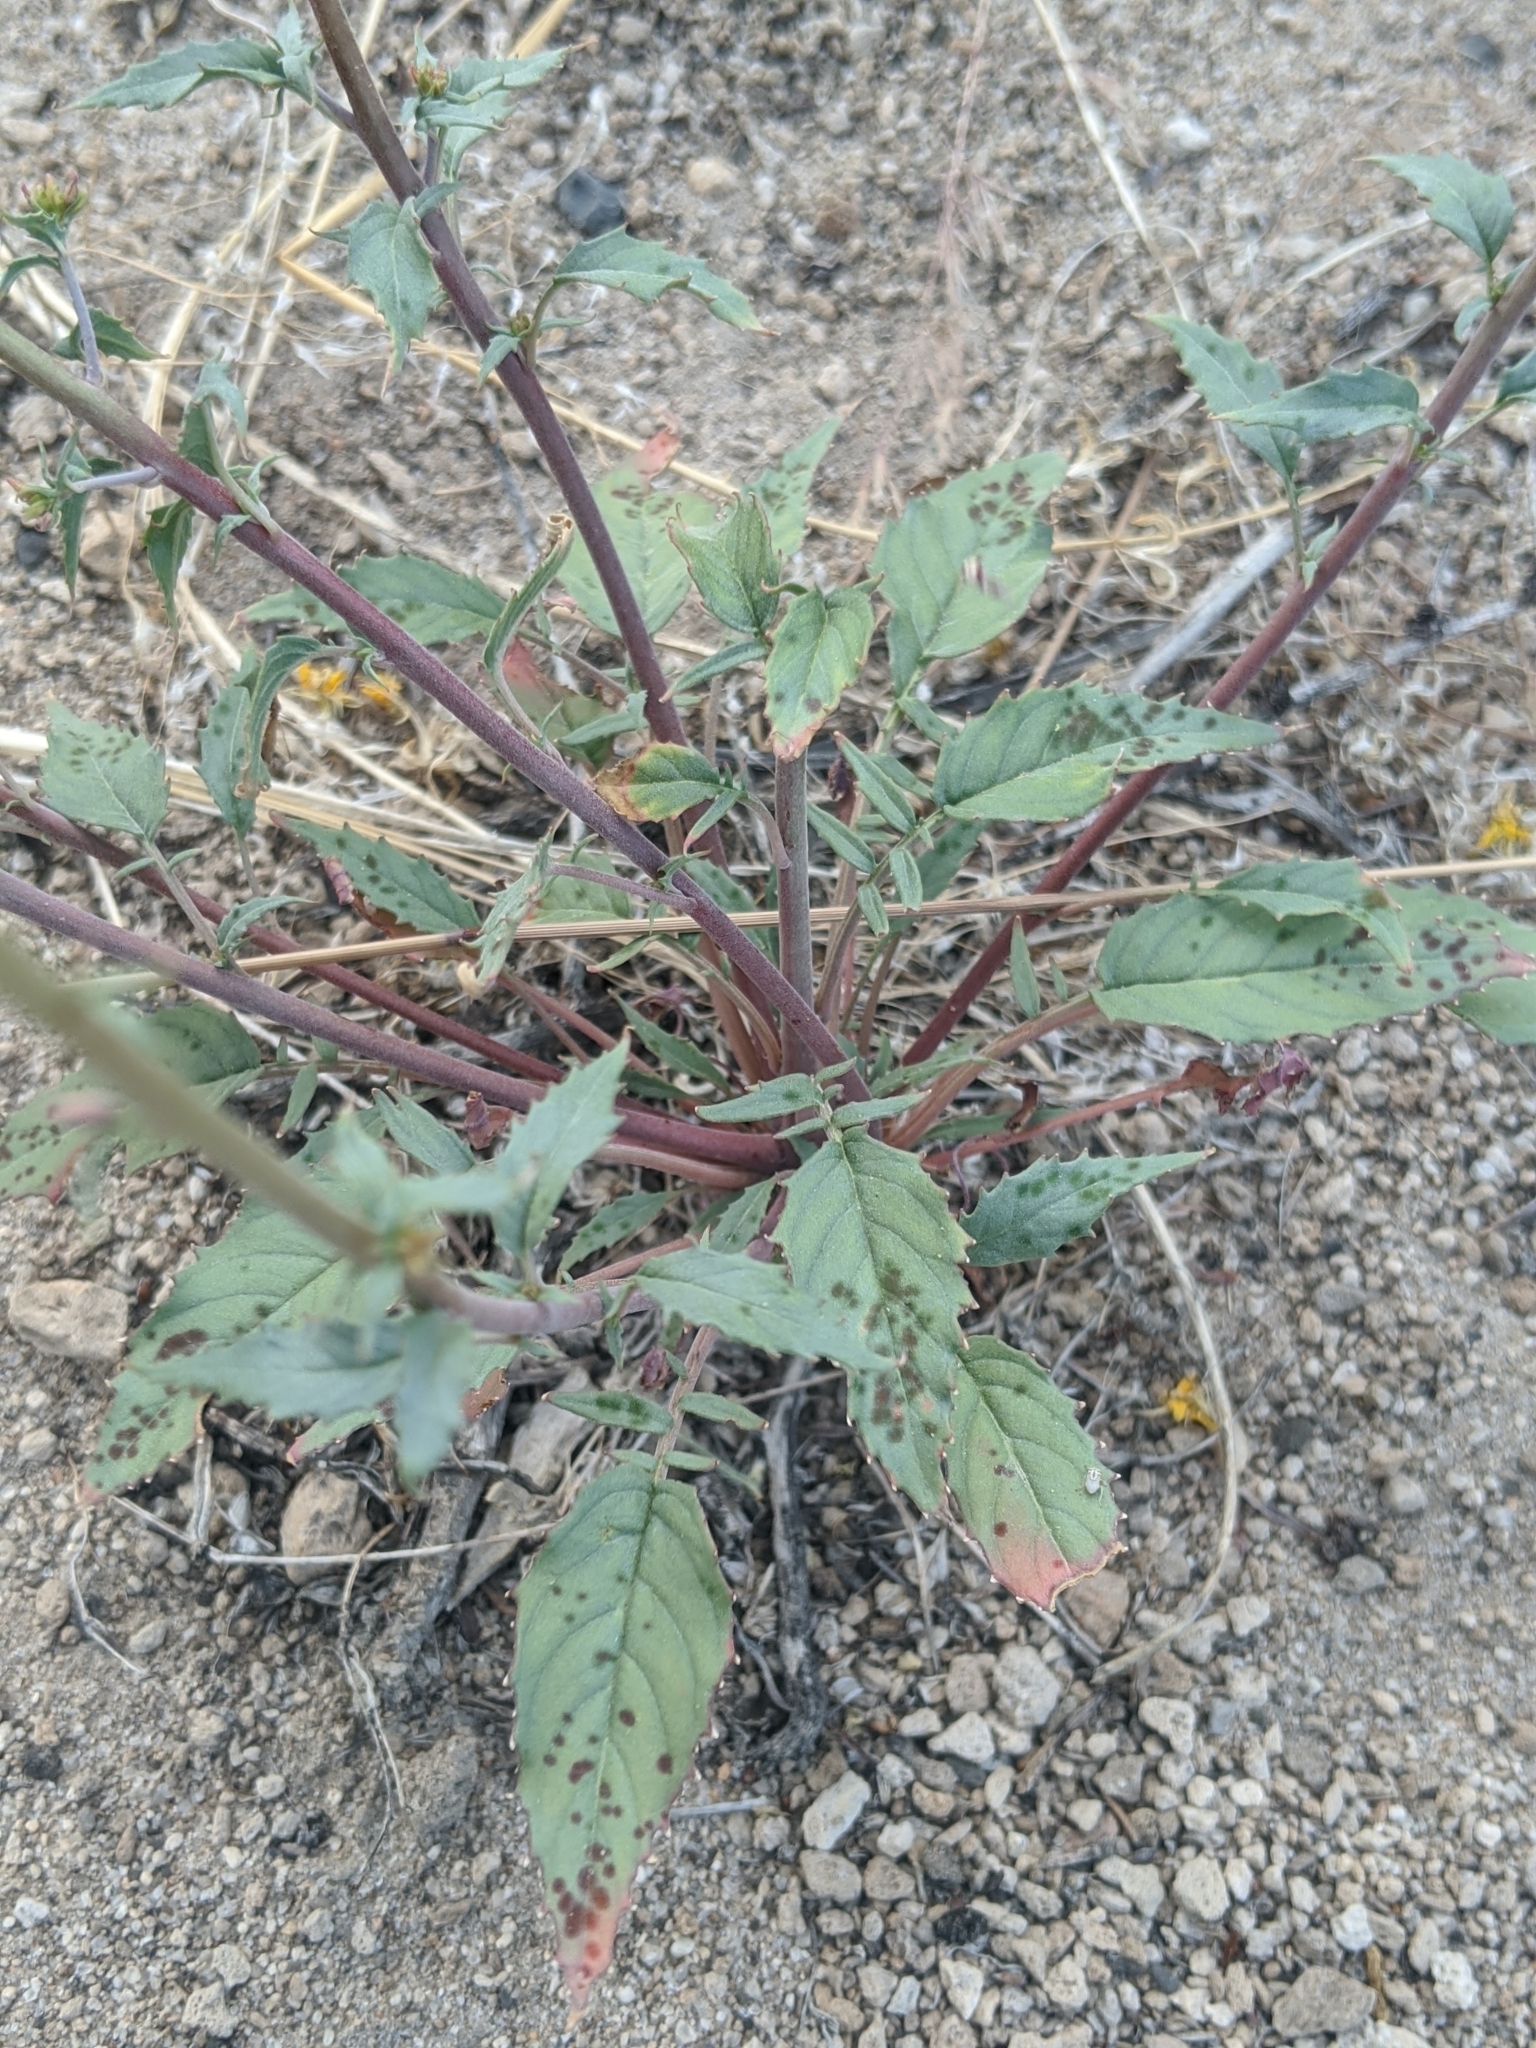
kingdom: Plantae
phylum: Tracheophyta
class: Magnoliopsida
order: Myrtales
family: Onagraceae
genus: Chylismia
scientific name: Chylismia claviformis
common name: Browneyes
